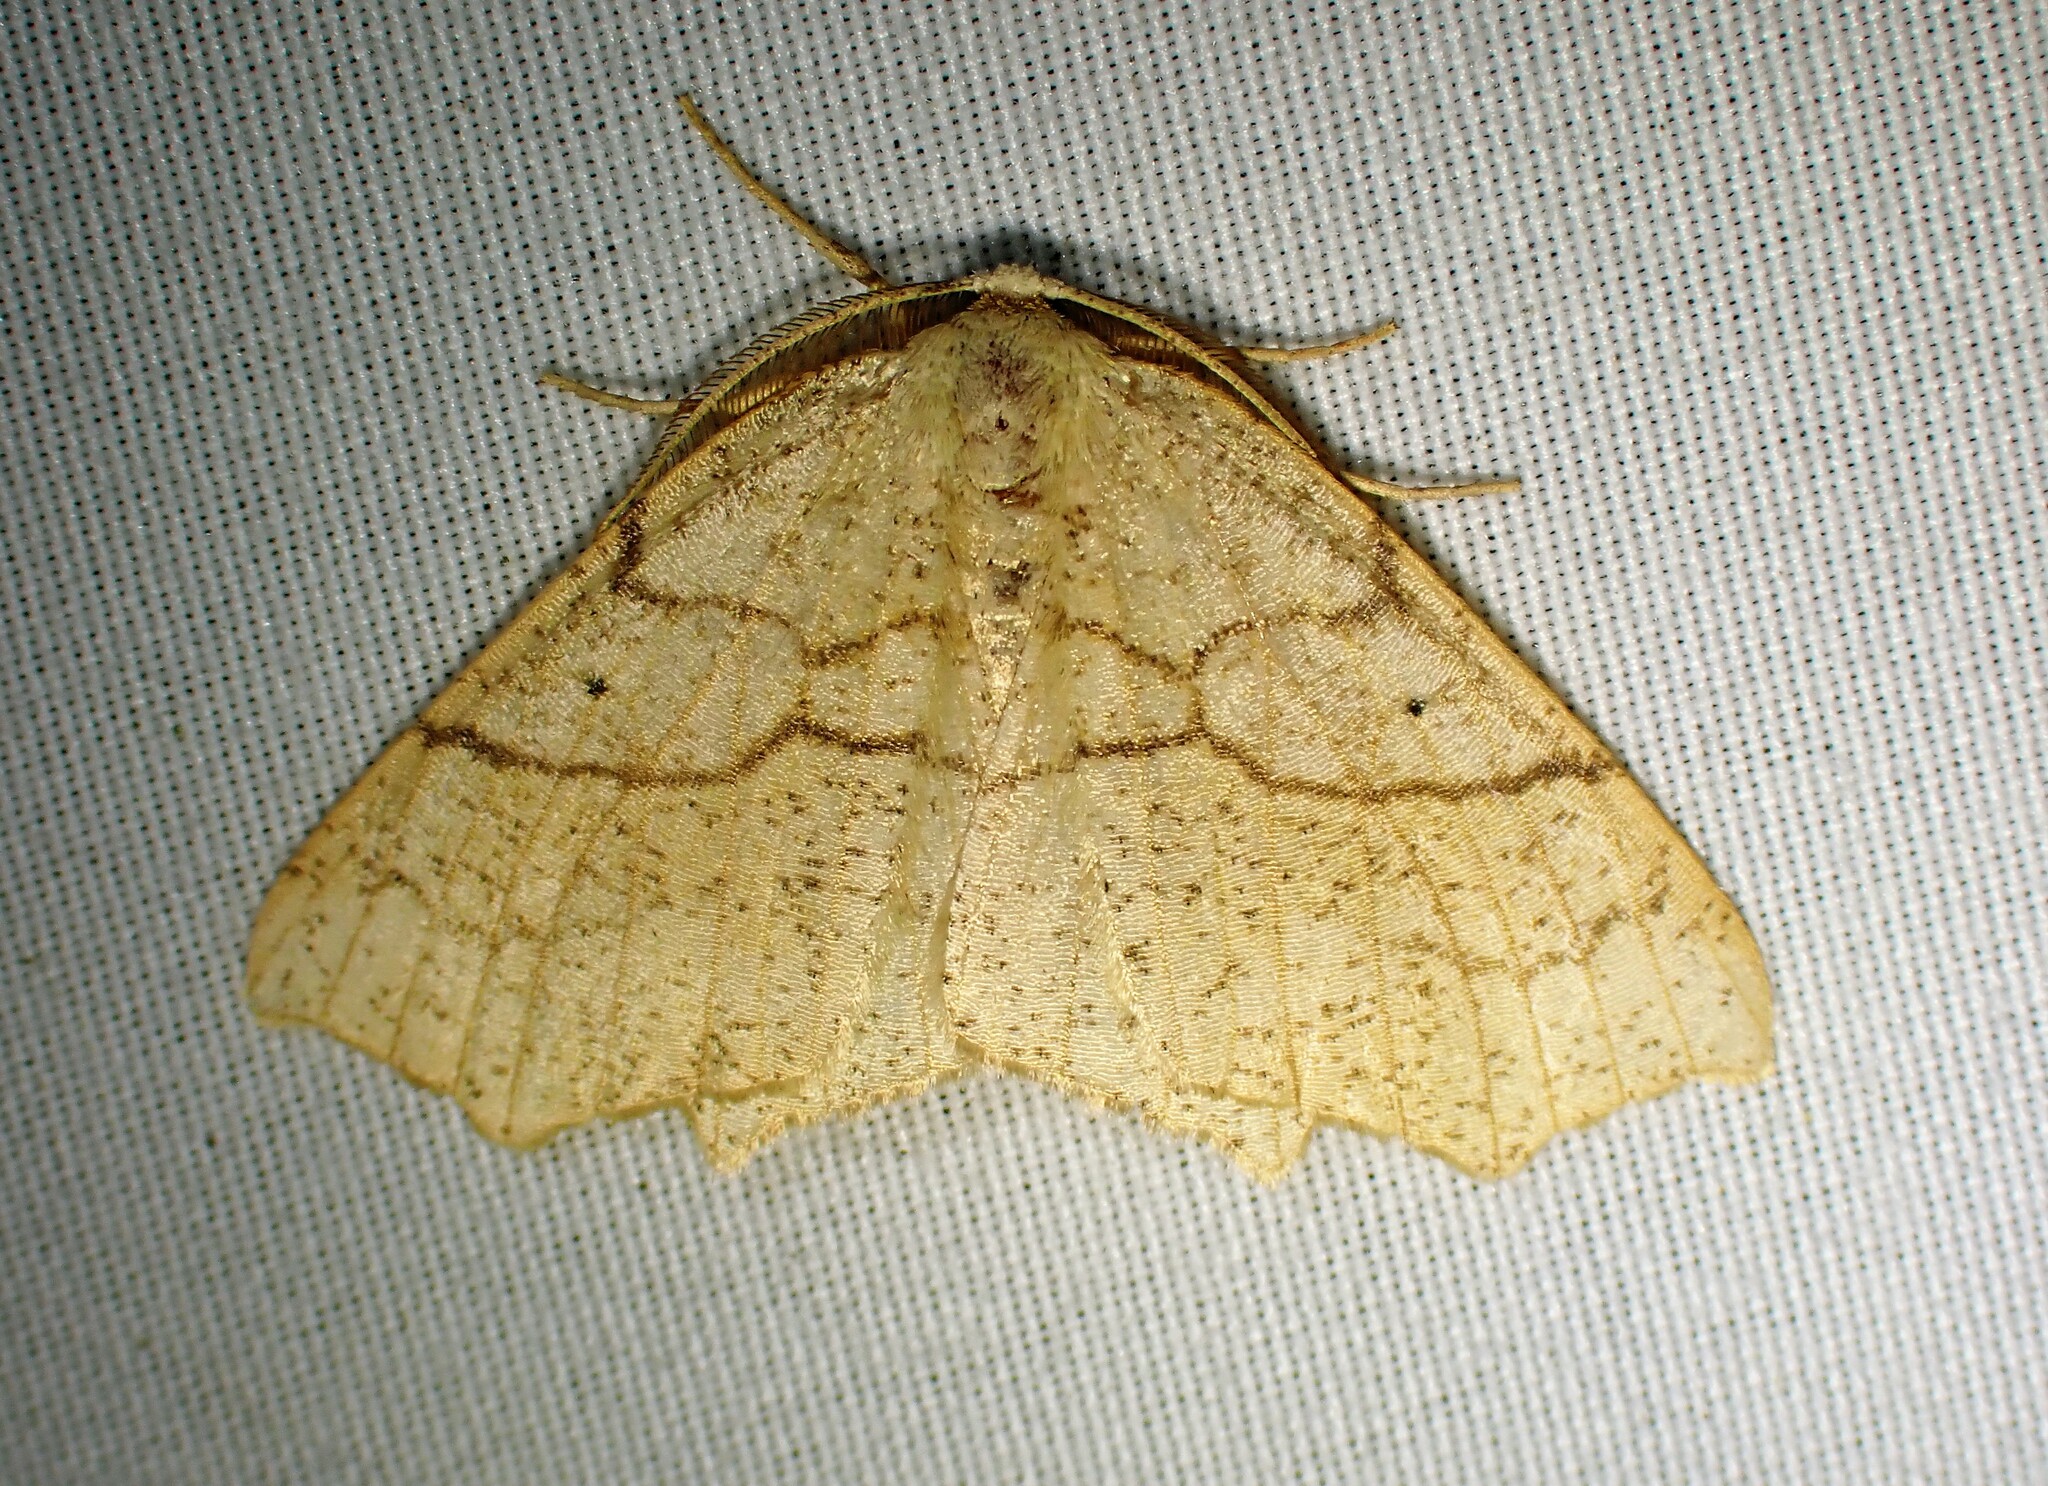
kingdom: Animalia
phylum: Arthropoda
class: Insecta
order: Lepidoptera
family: Geometridae
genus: Besma
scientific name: Besma quercivoraria
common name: Oak besma
